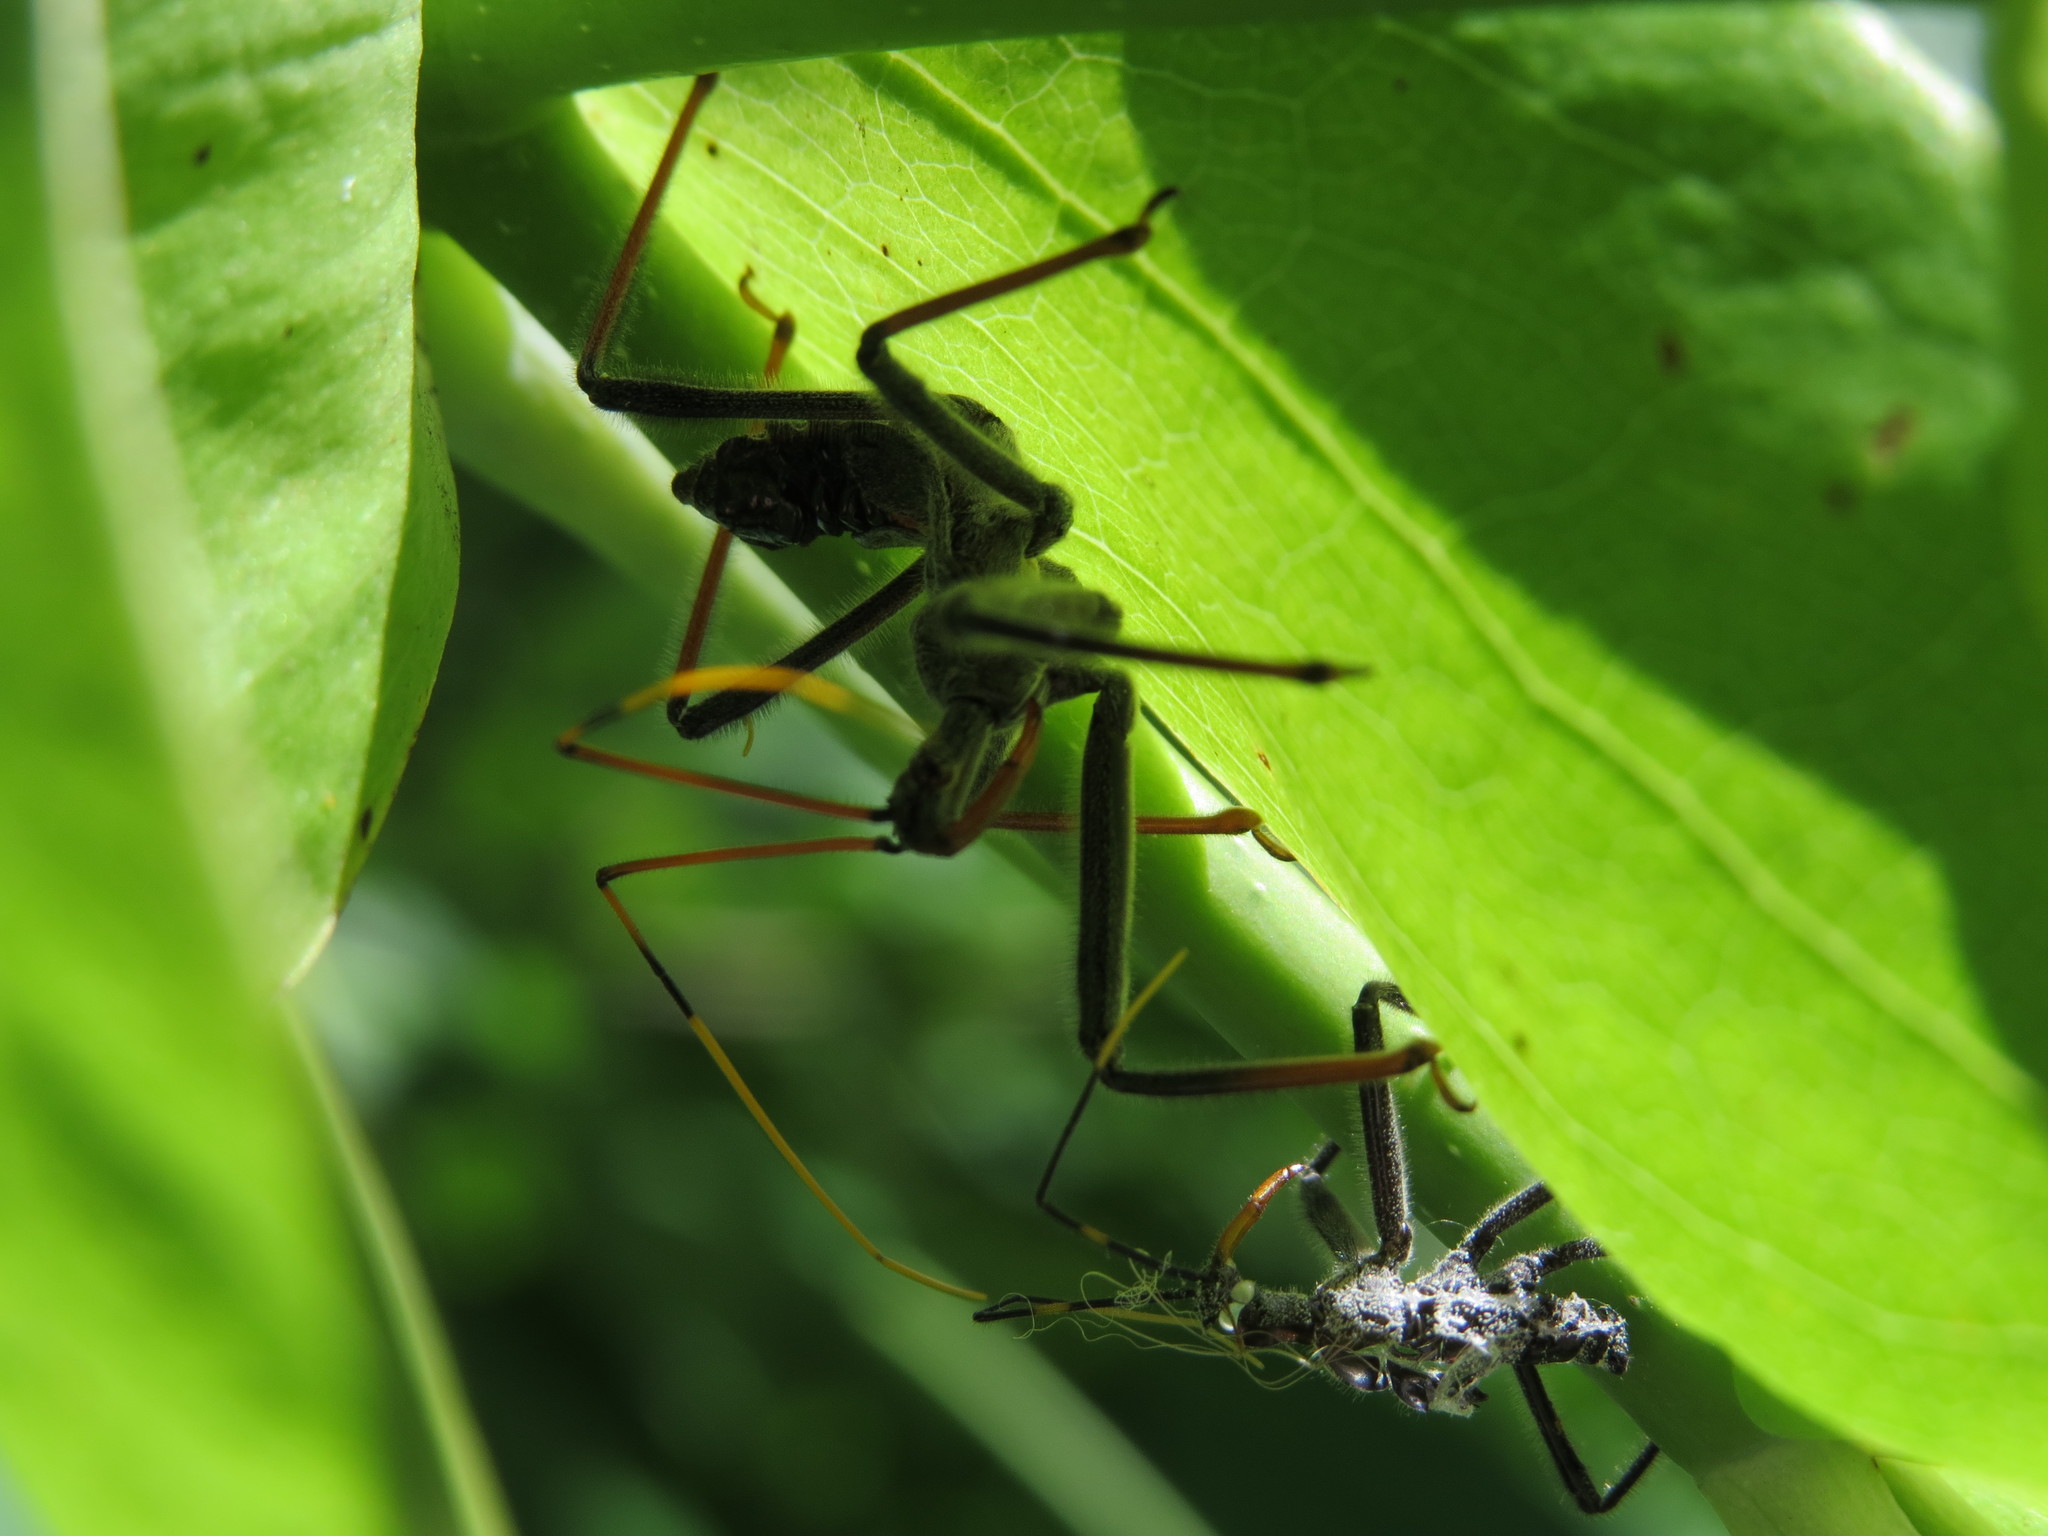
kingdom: Animalia
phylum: Arthropoda
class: Insecta
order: Hemiptera
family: Reduviidae
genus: Arilus
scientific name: Arilus cristatus
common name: North american wheel bug
